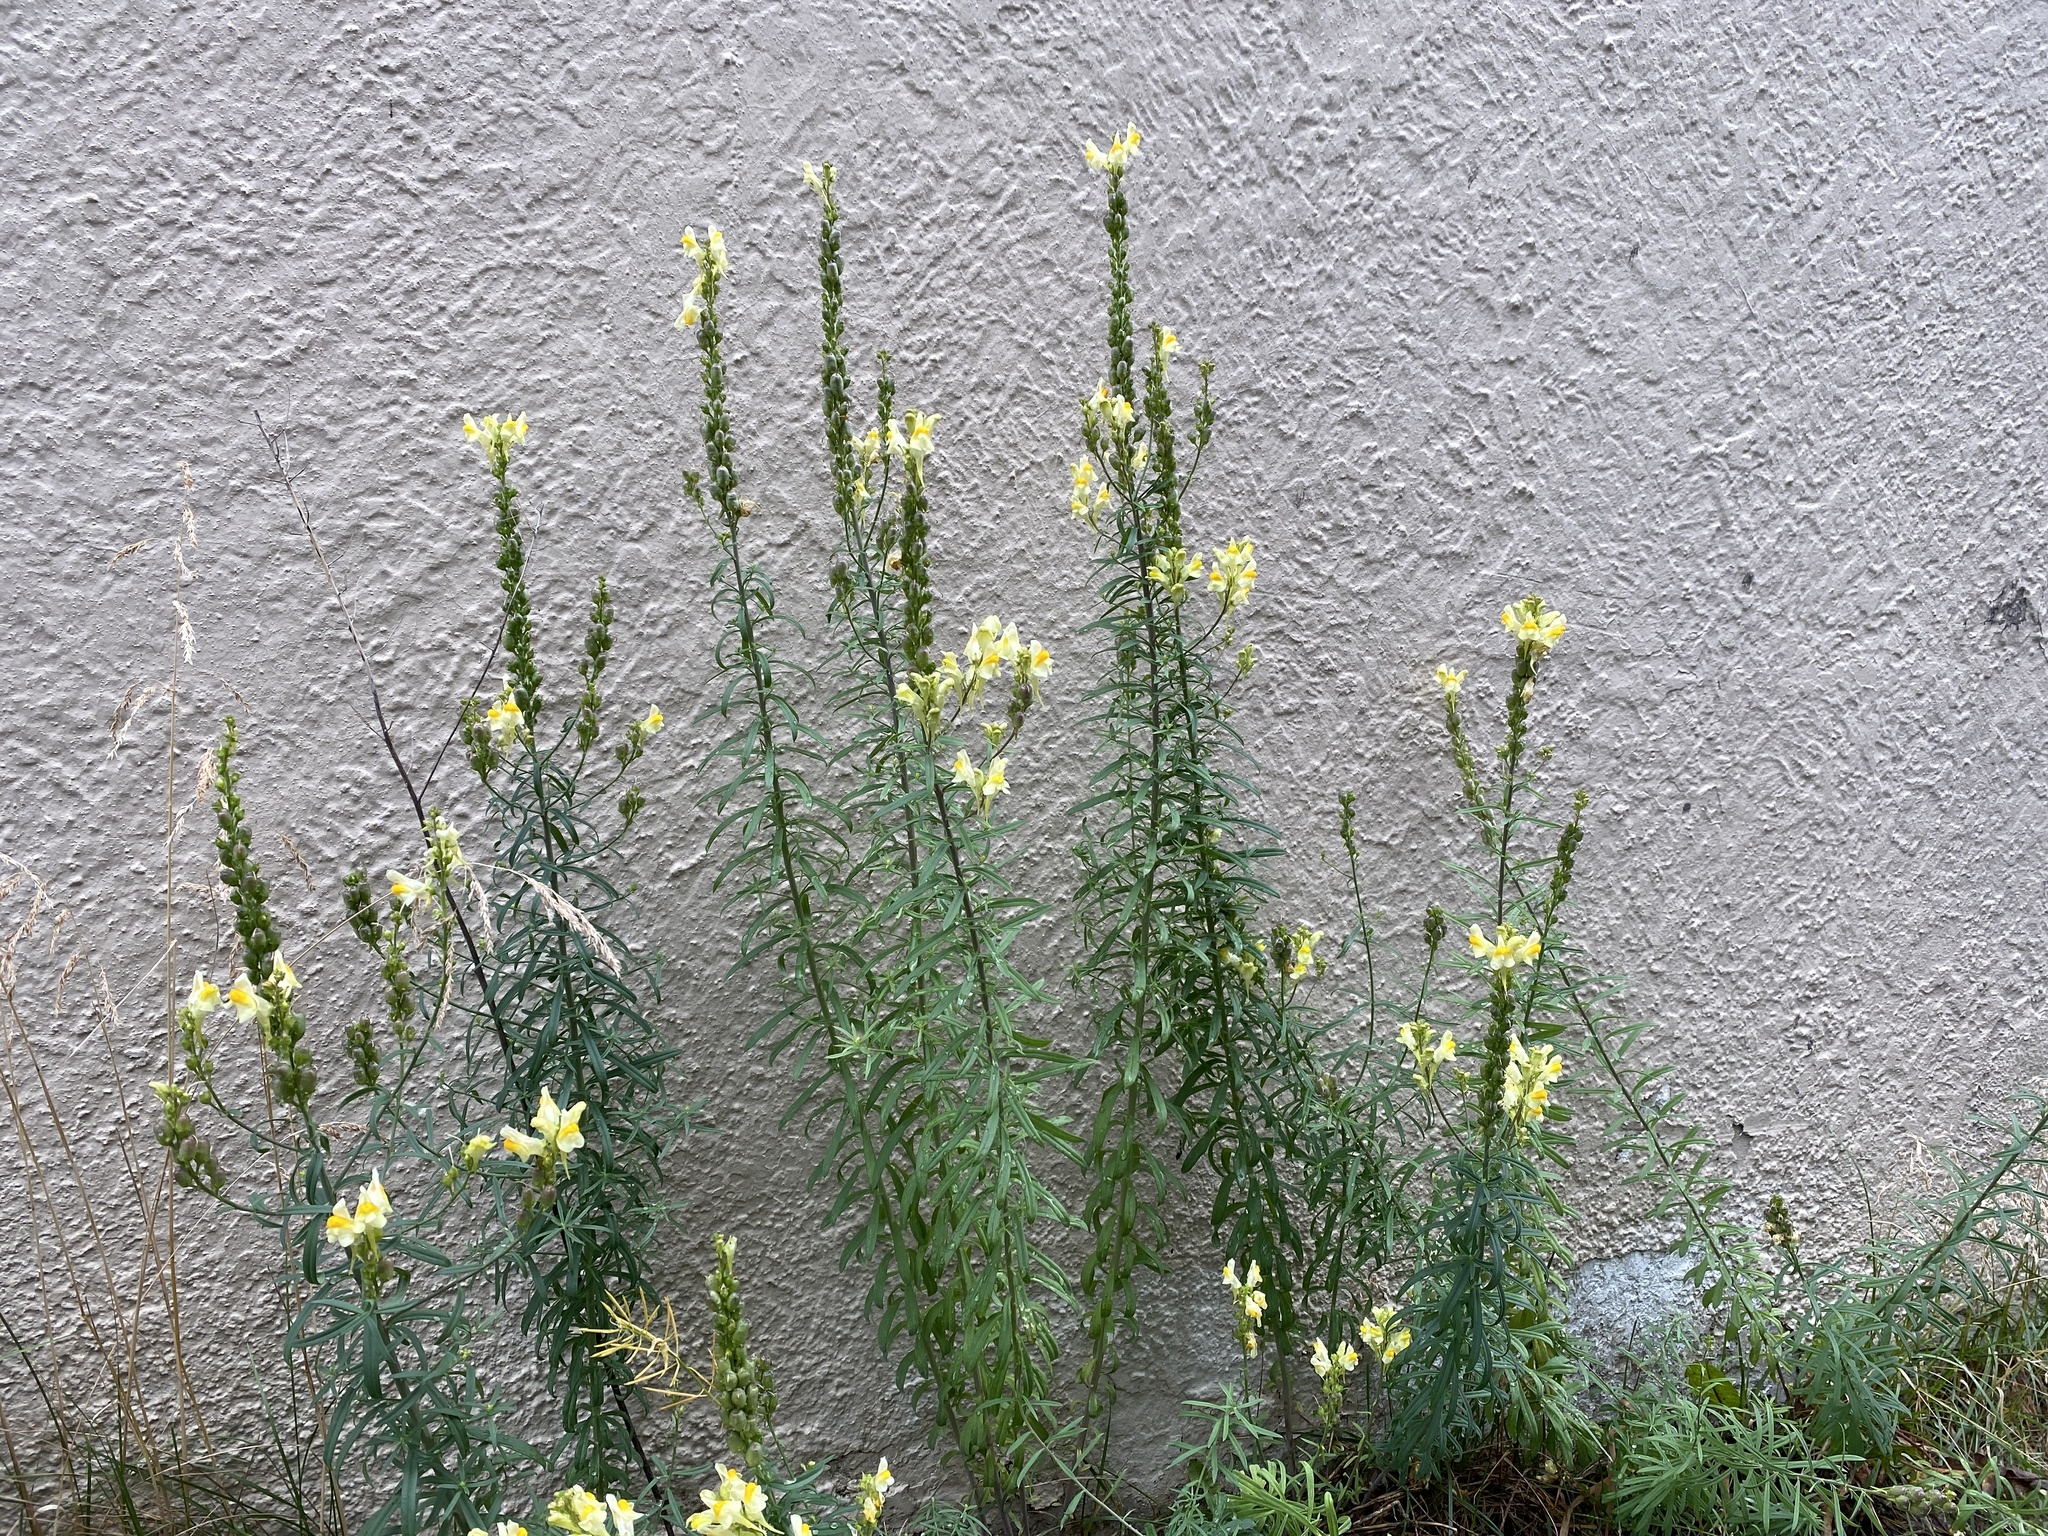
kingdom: Plantae
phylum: Tracheophyta
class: Magnoliopsida
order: Lamiales
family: Plantaginaceae
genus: Linaria
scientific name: Linaria vulgaris
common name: Butter and eggs
